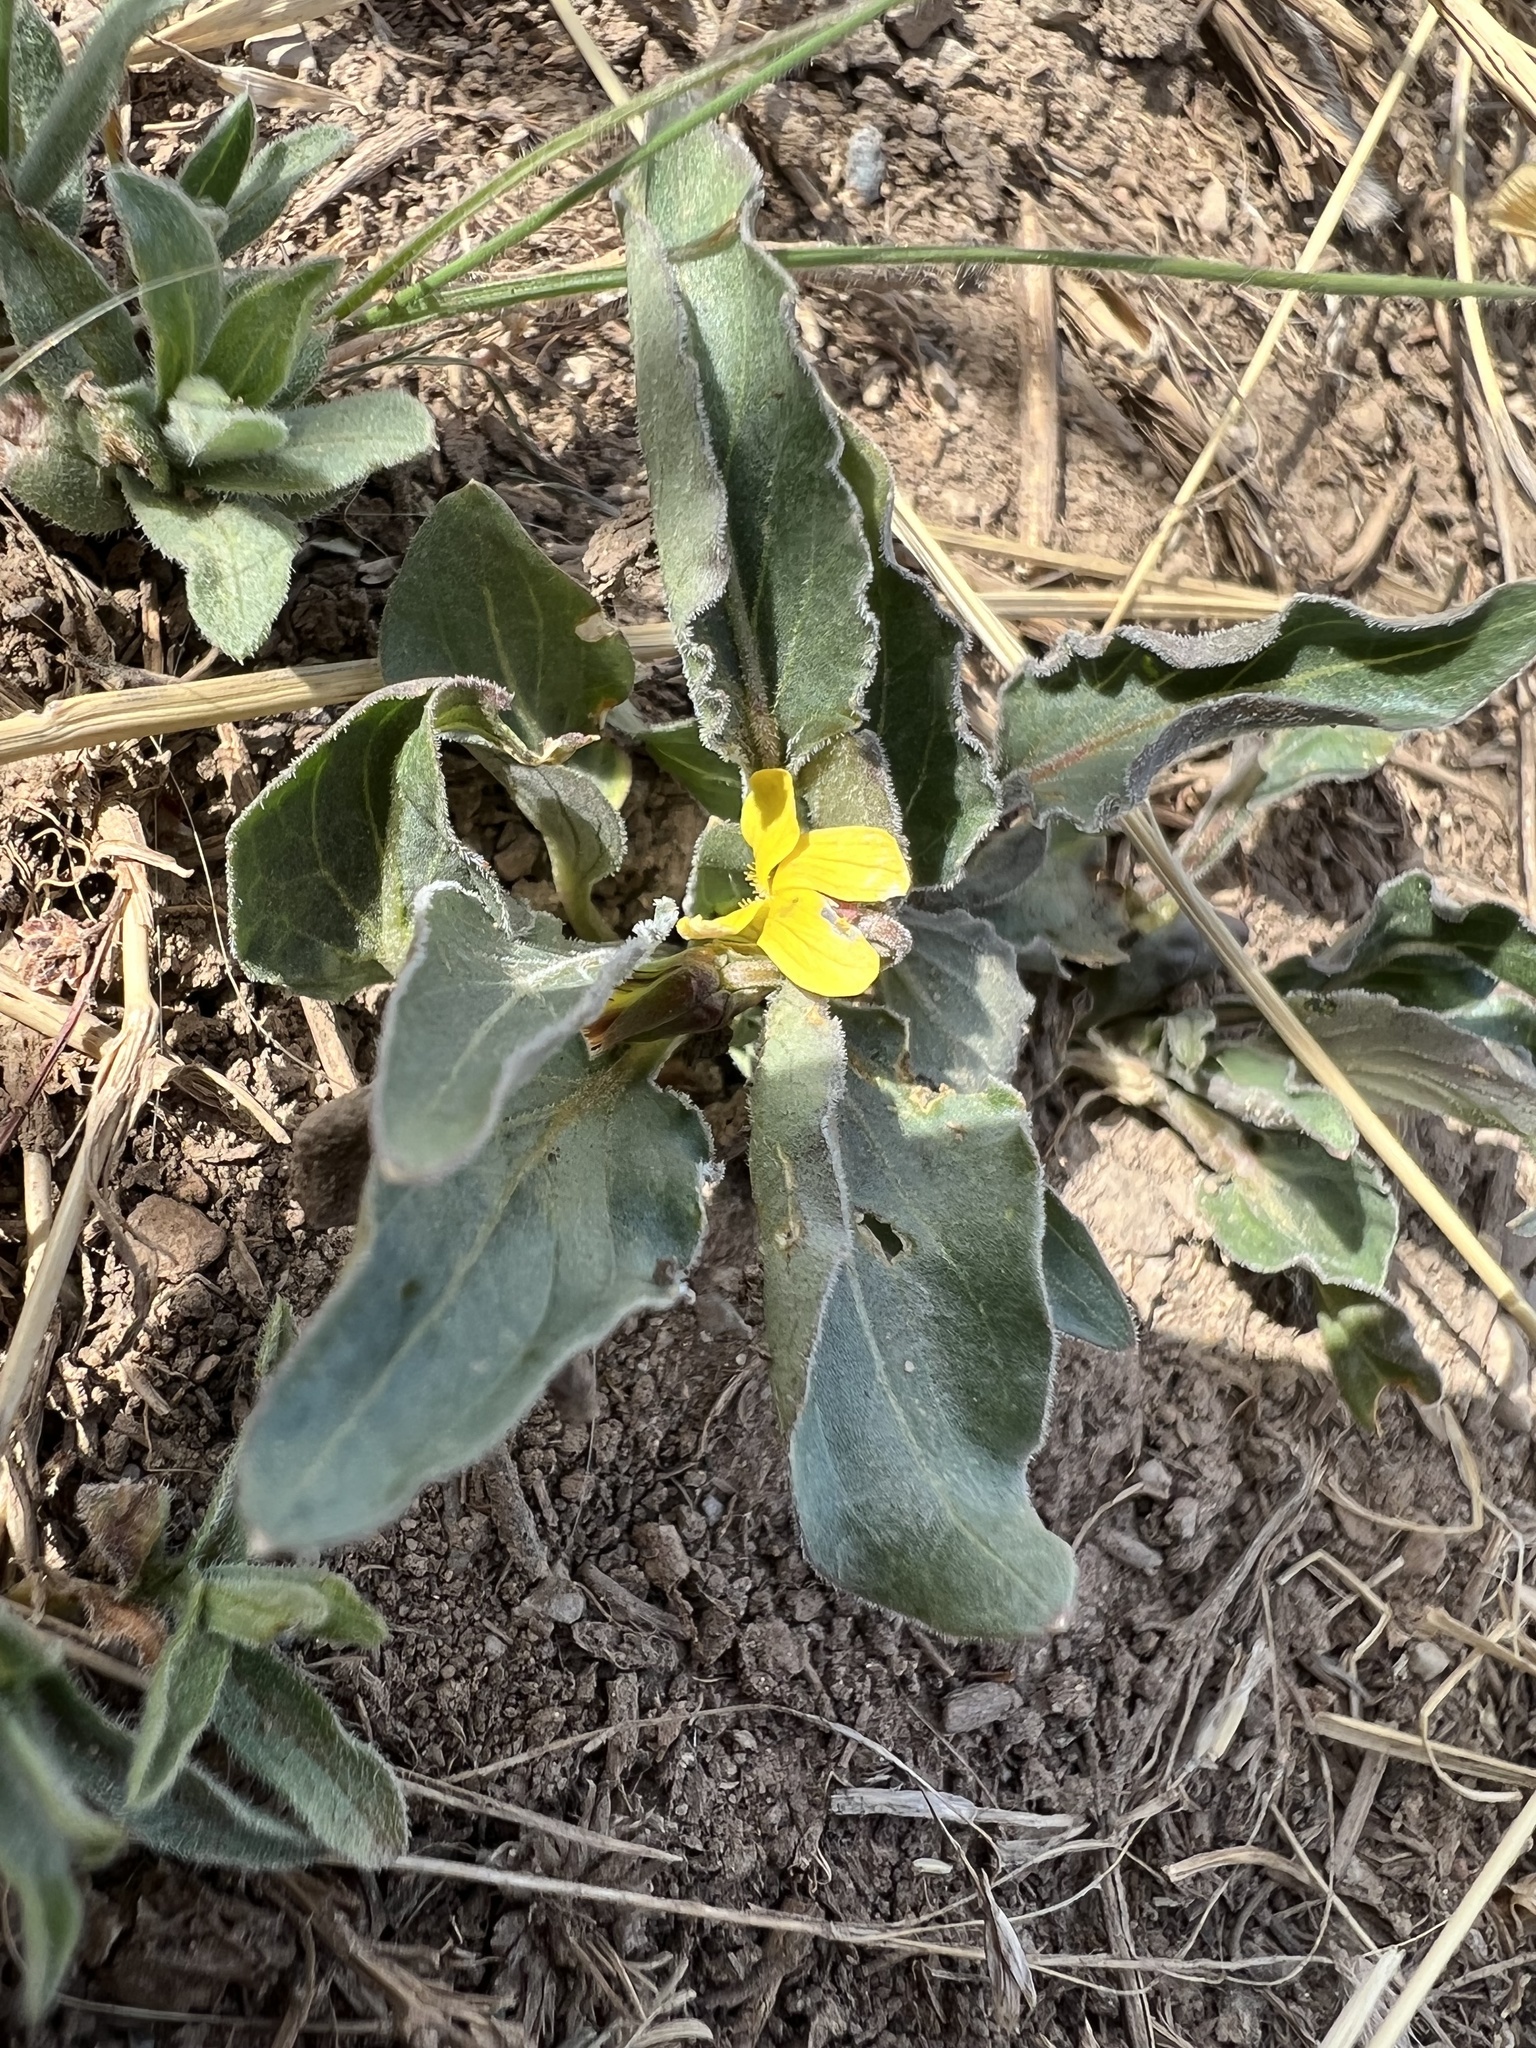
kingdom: Plantae
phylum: Tracheophyta
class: Magnoliopsida
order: Malpighiales
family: Violaceae
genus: Viola
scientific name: Viola nuttallii
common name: Yellow prairie violet
